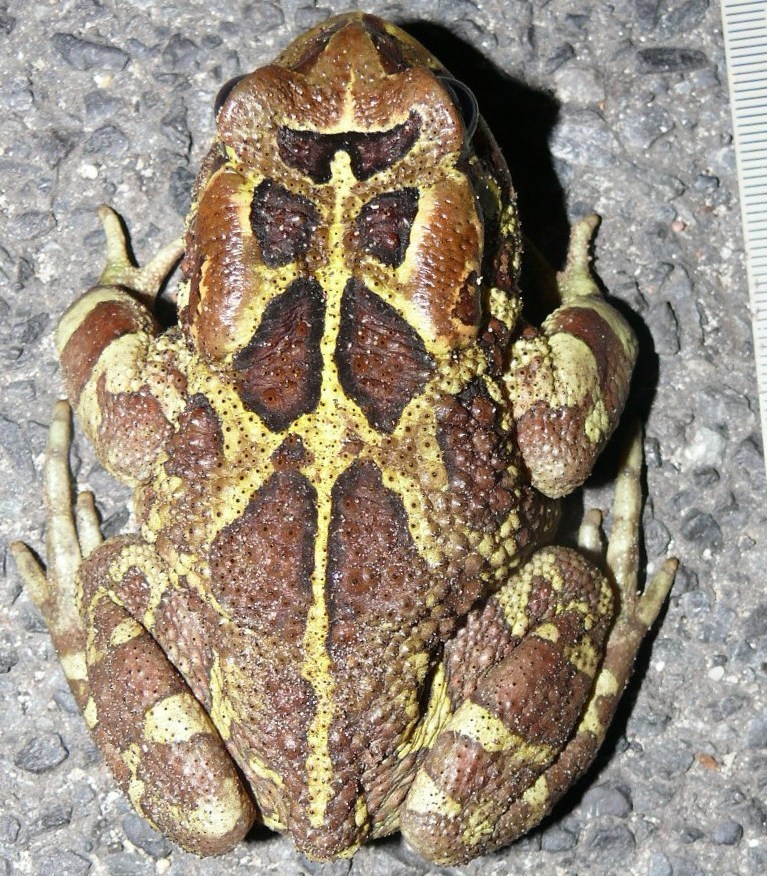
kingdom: Animalia
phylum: Chordata
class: Amphibia
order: Anura
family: Bufonidae
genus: Sclerophrys
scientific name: Sclerophrys pantherina
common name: Panther toad
